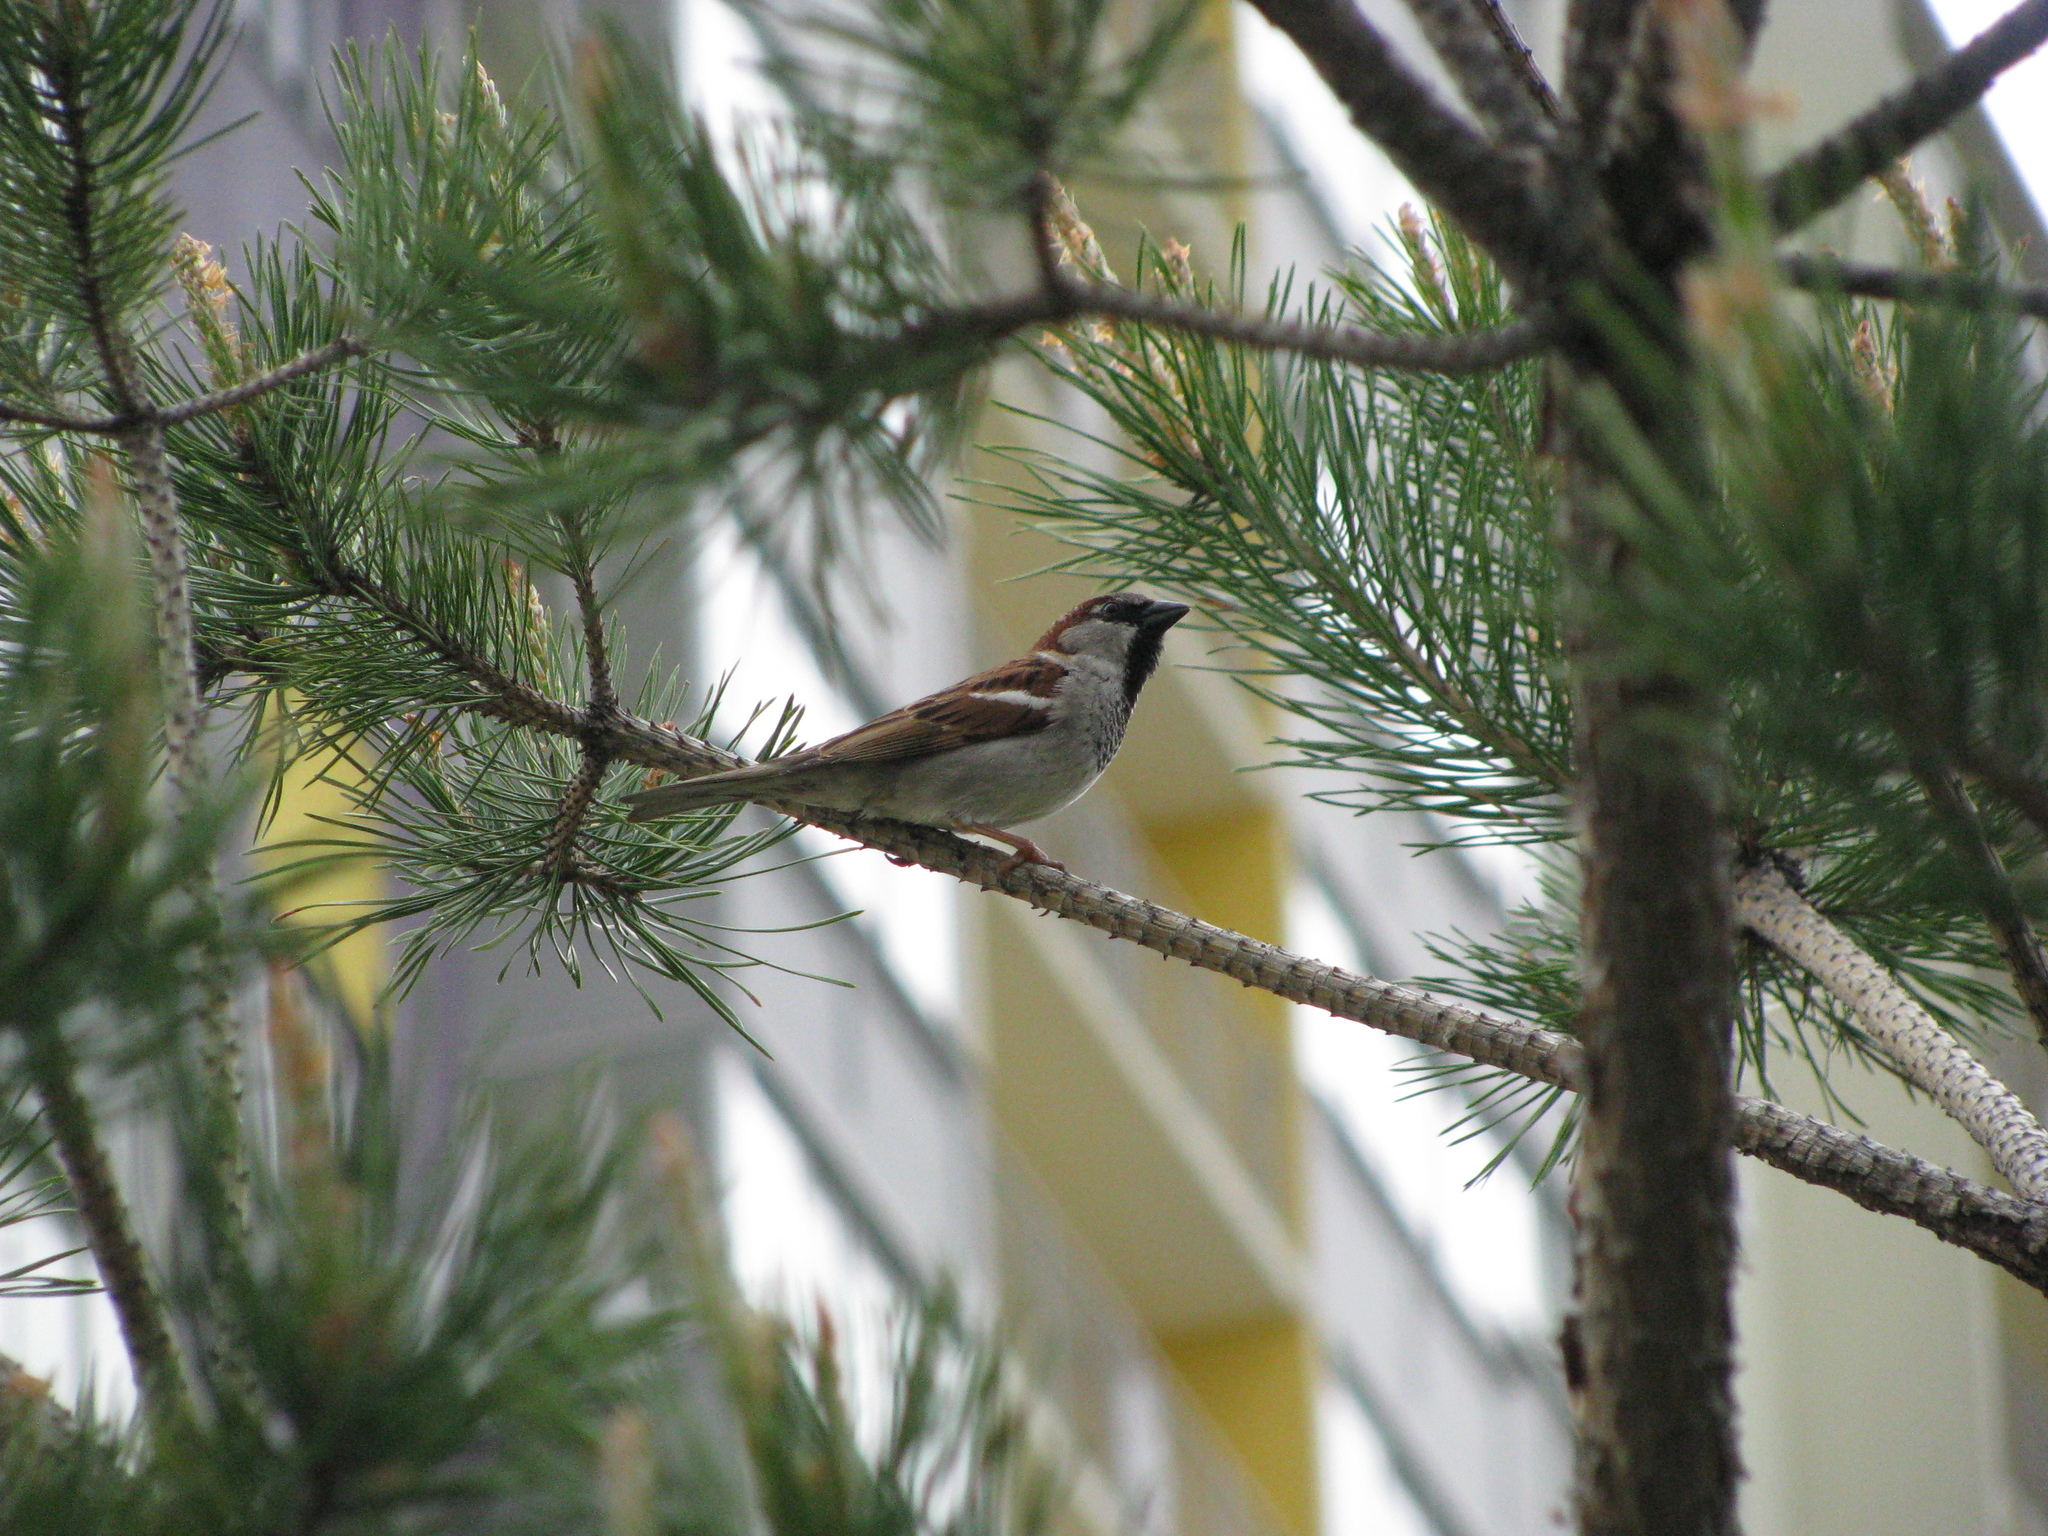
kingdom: Animalia
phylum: Chordata
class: Aves
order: Passeriformes
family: Passeridae
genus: Passer
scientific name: Passer domesticus
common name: House sparrow
